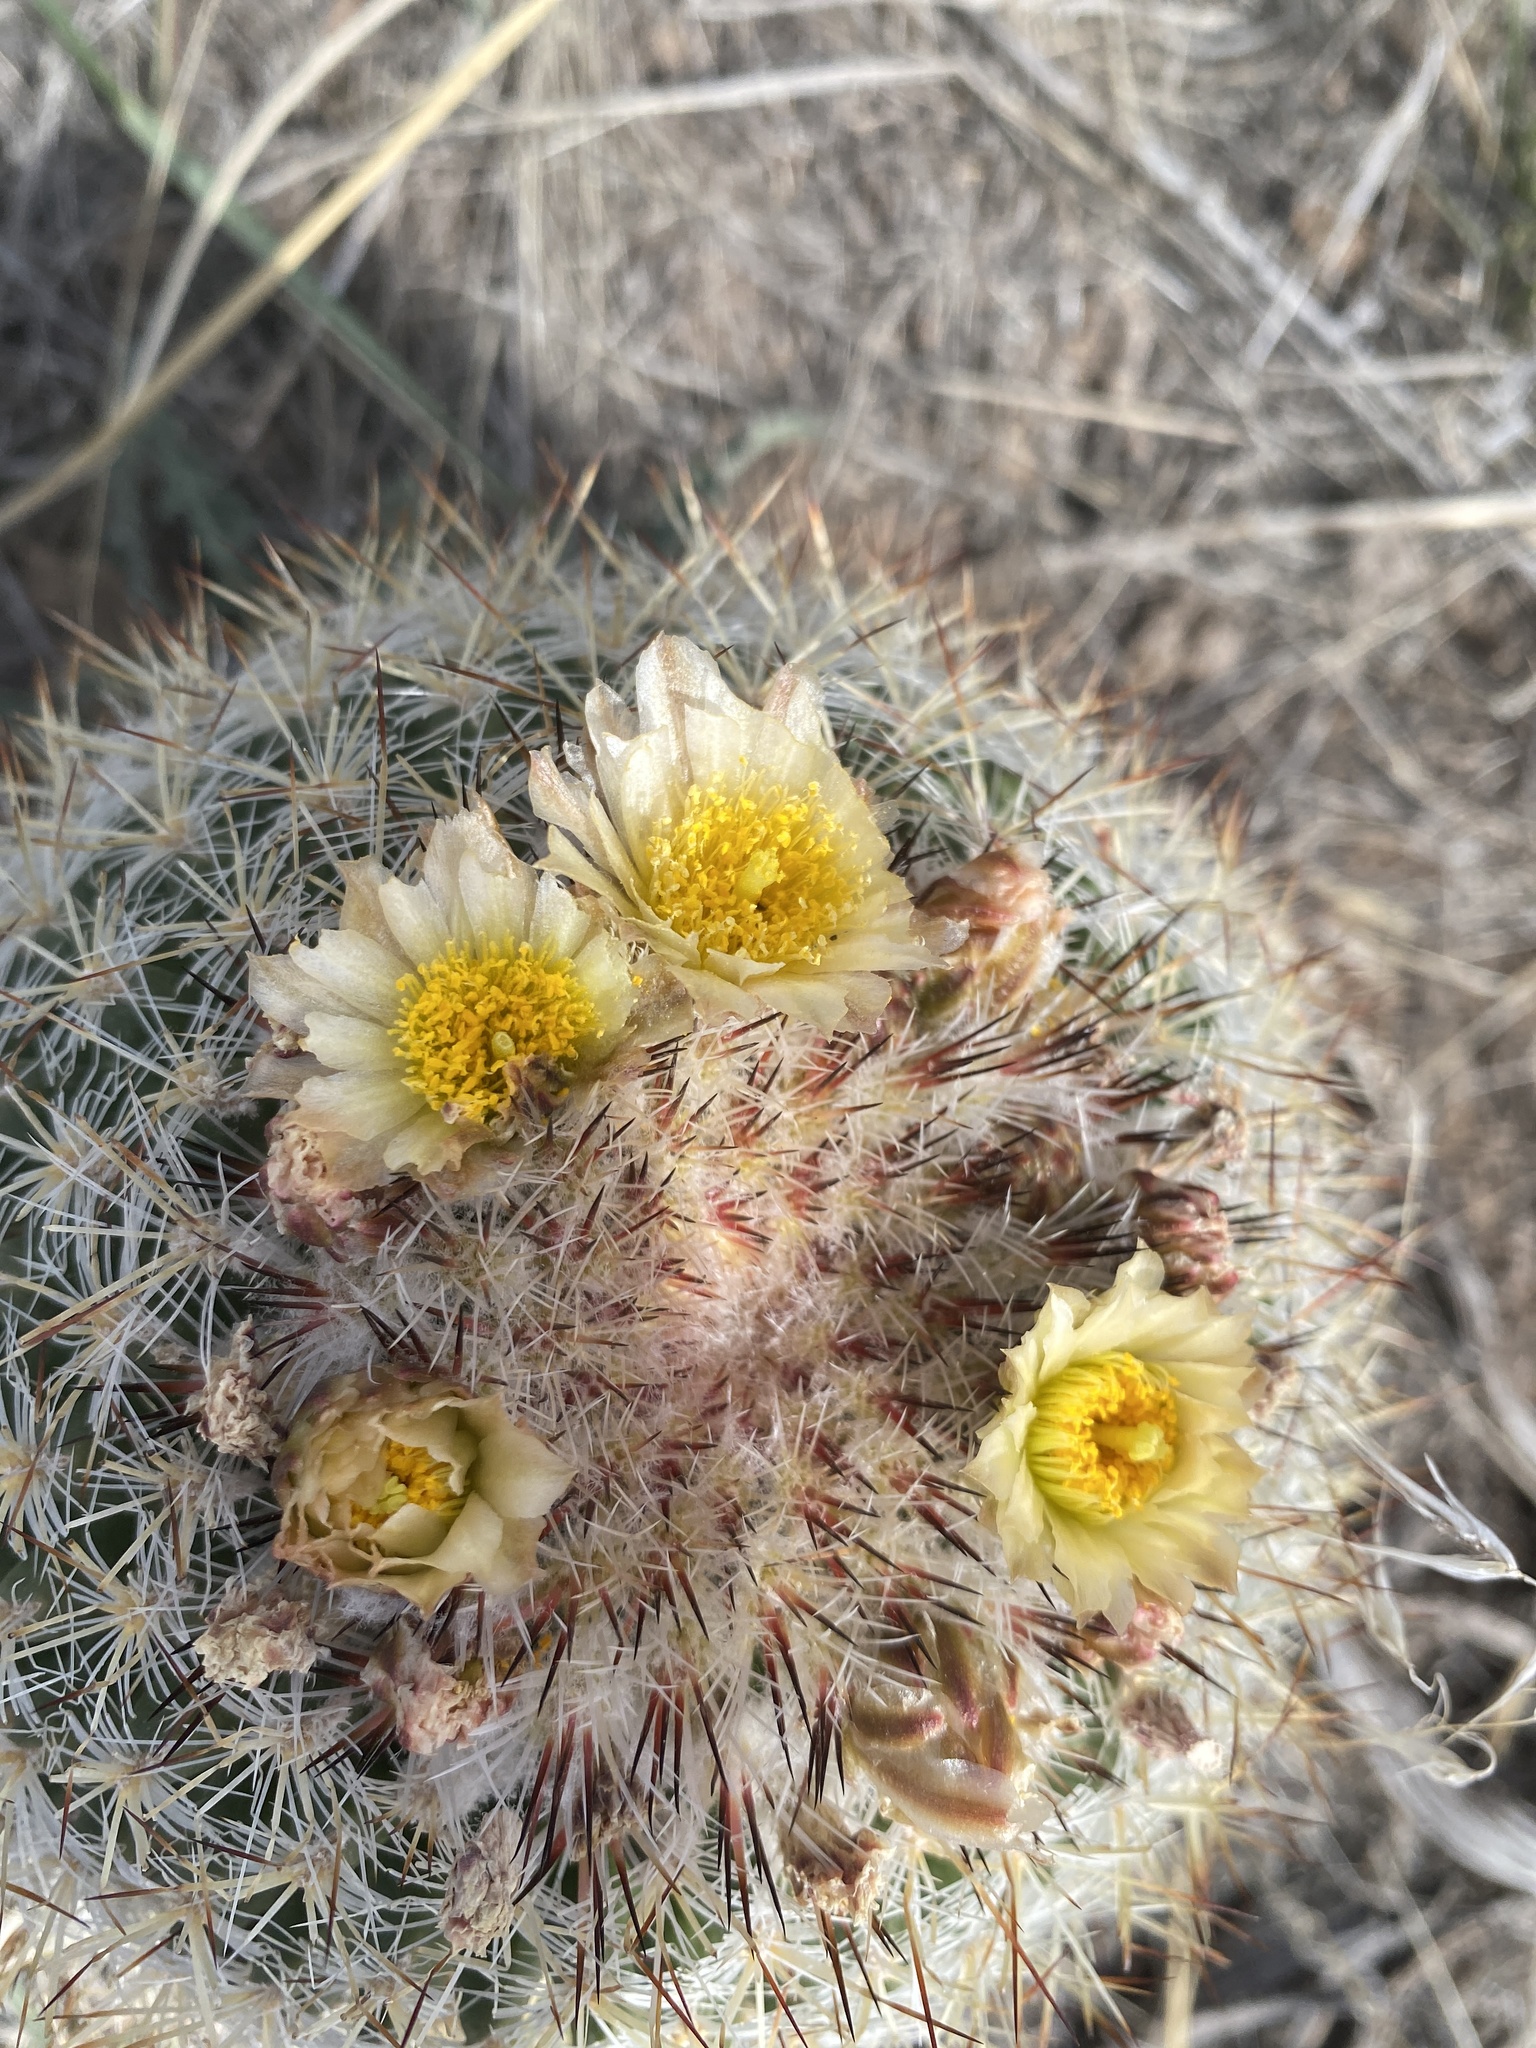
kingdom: Plantae
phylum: Tracheophyta
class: Magnoliopsida
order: Caryophyllales
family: Cactaceae
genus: Pediocactus
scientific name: Pediocactus simpsonii
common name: Simpson's hedgehog cactus
